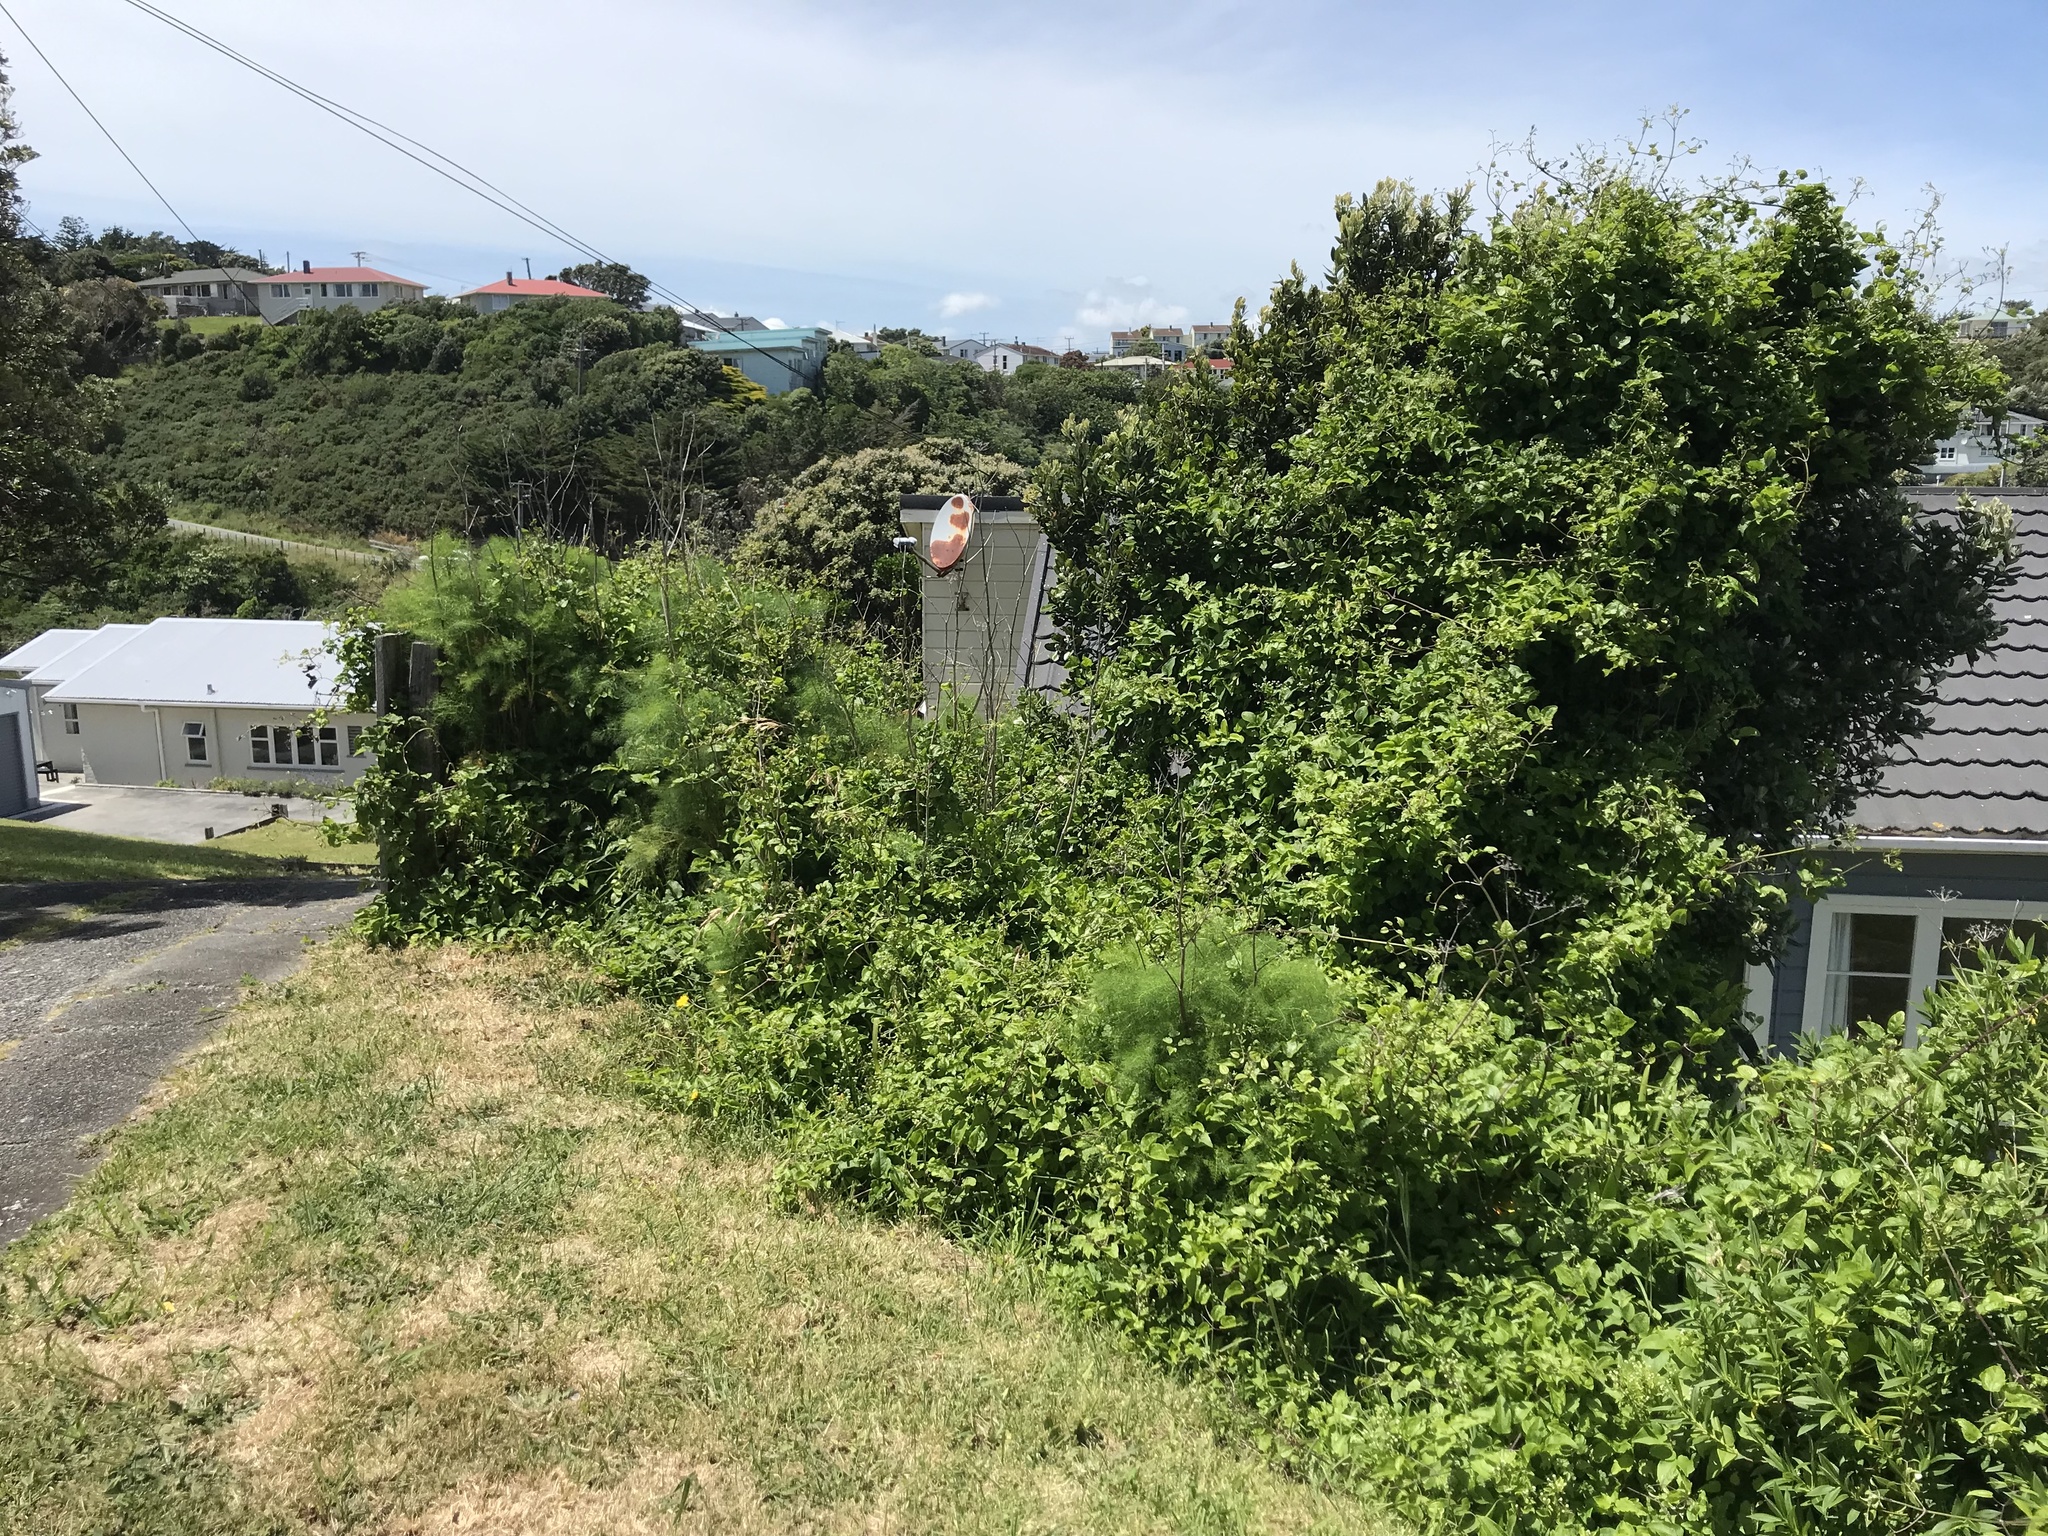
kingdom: Plantae
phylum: Tracheophyta
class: Magnoliopsida
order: Ranunculales
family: Ranunculaceae
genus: Clematis
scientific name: Clematis vitalba
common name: Evergreen clematis
